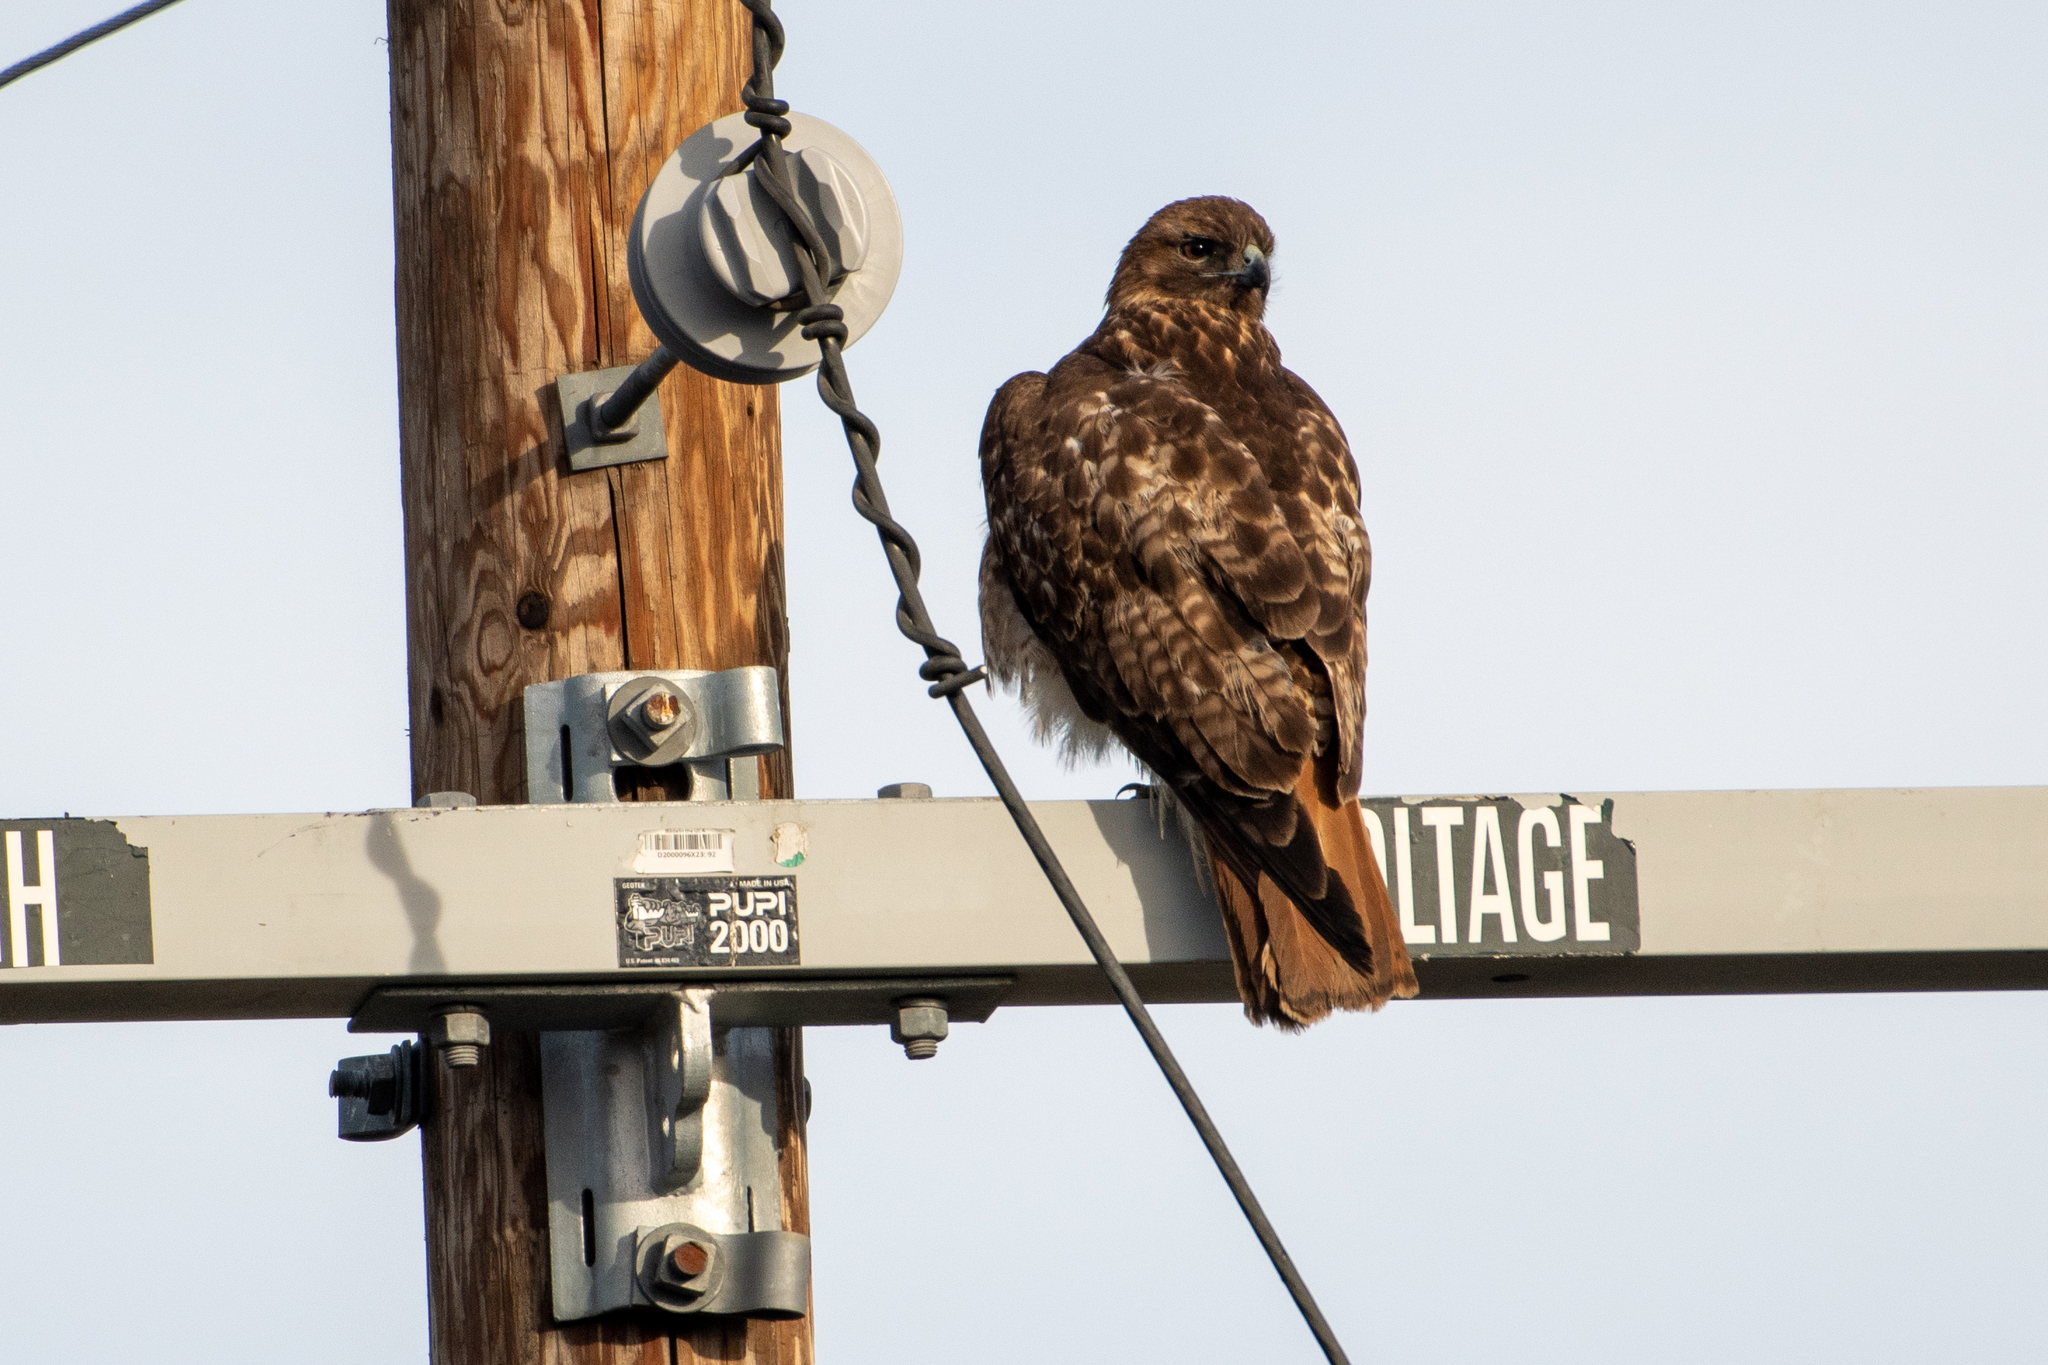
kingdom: Animalia
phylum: Chordata
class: Aves
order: Accipitriformes
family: Accipitridae
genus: Buteo
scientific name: Buteo jamaicensis
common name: Red-tailed hawk
